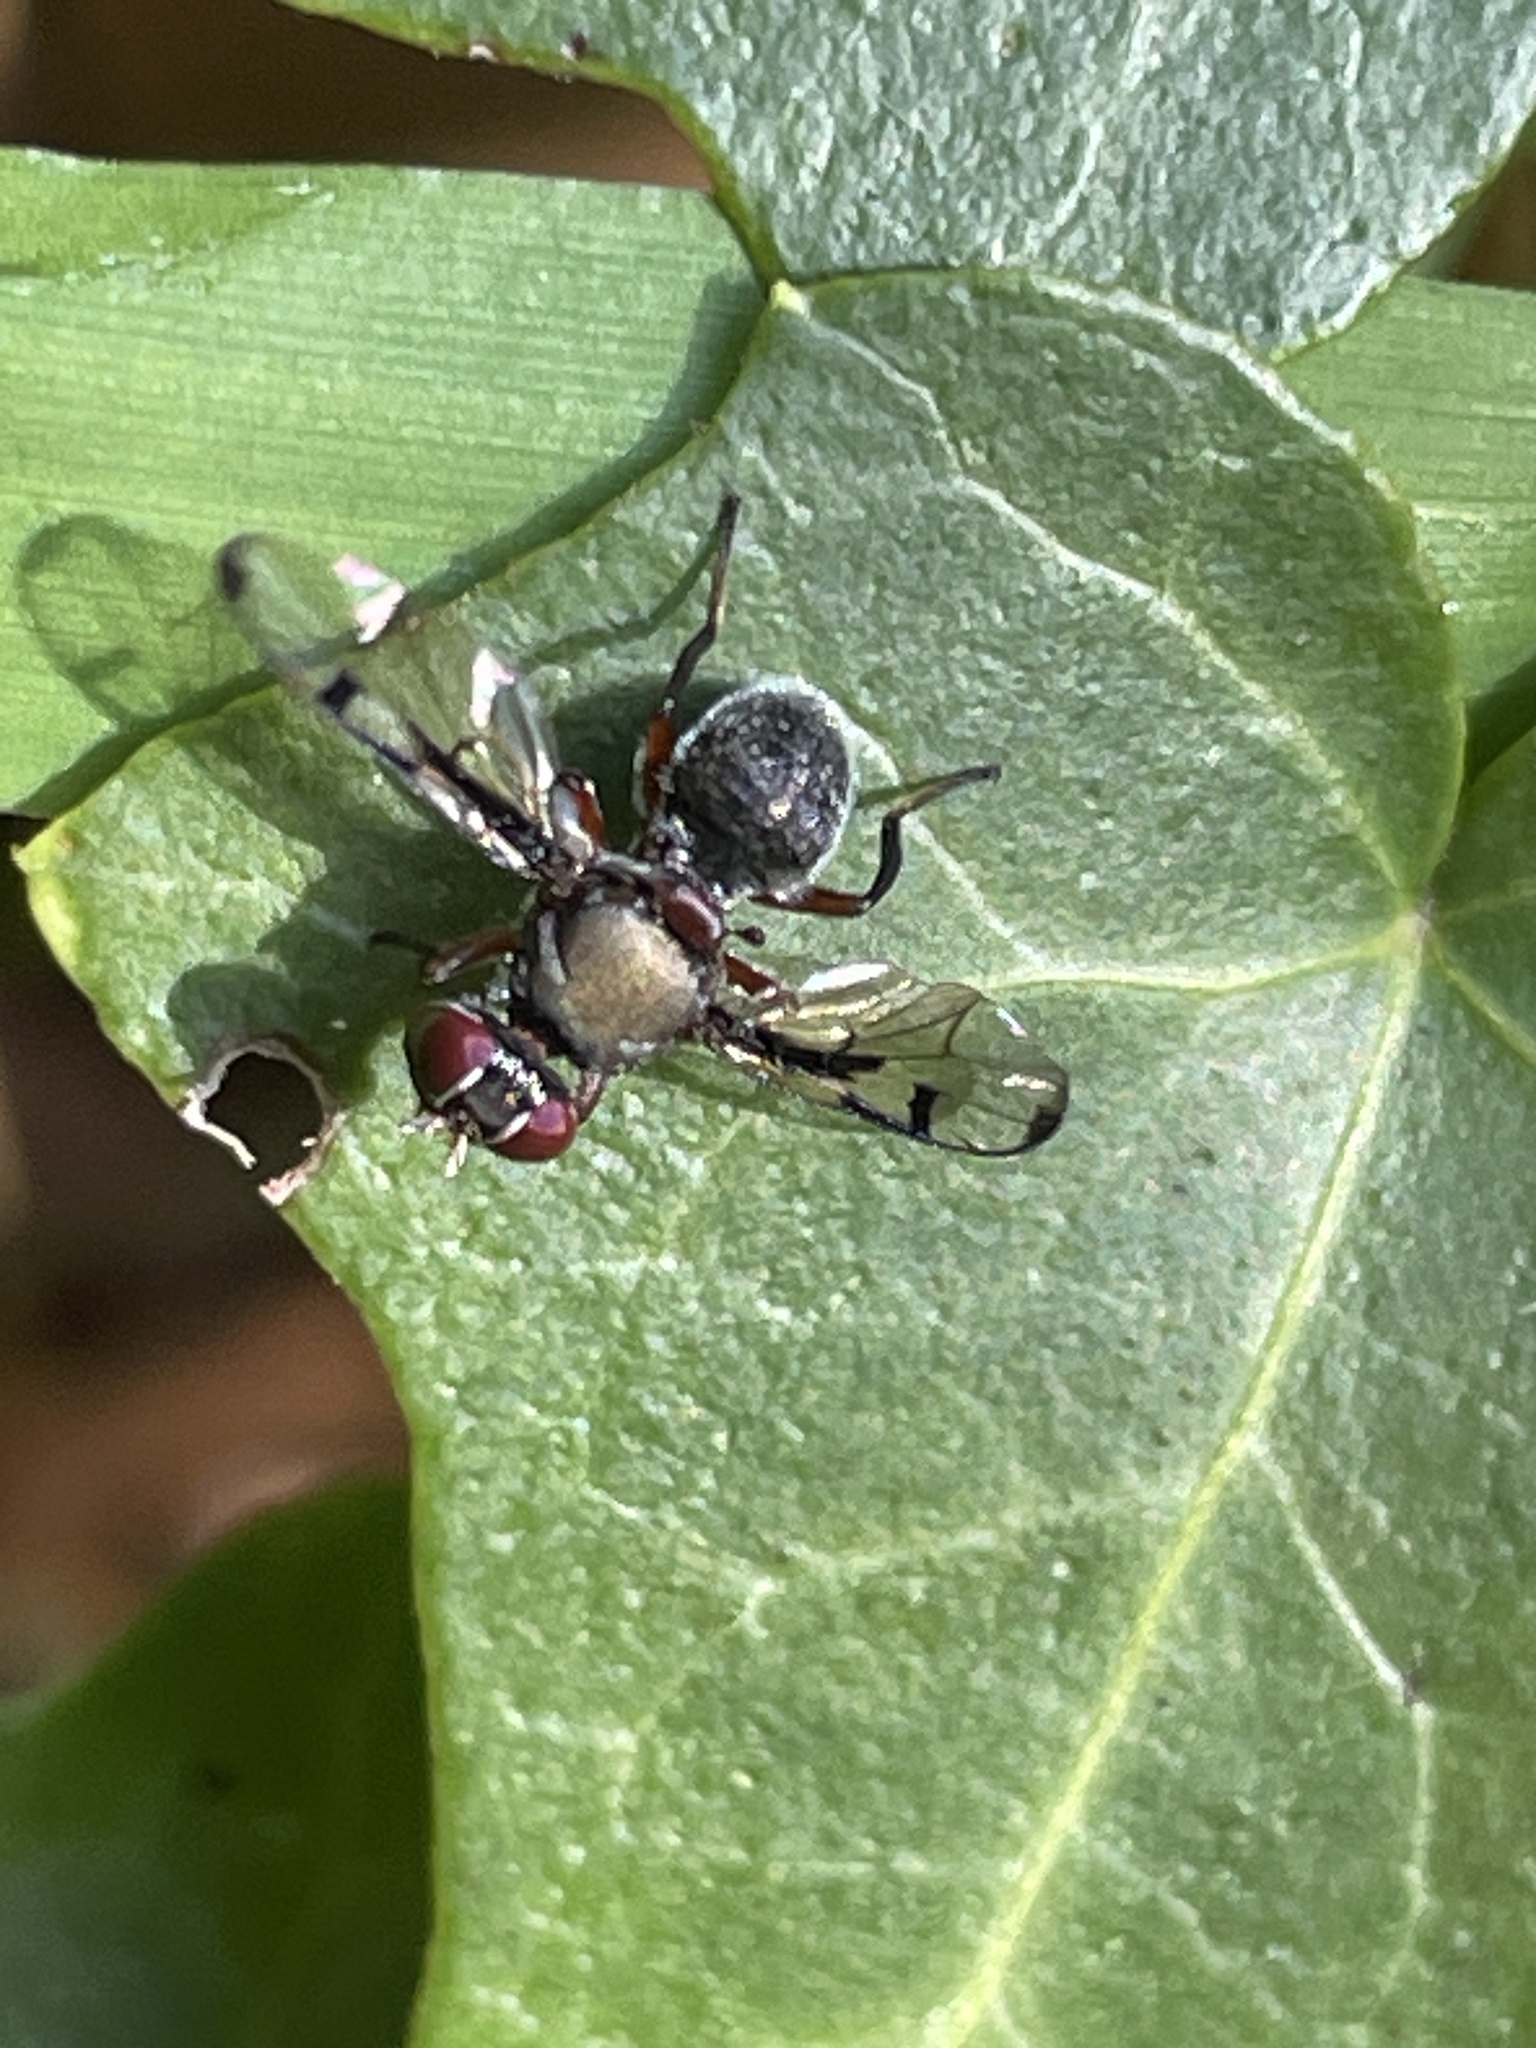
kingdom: Animalia
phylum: Arthropoda
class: Insecta
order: Diptera
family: Platystomatidae
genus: Pogonortalis
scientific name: Pogonortalis doclea
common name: Boatman fly
